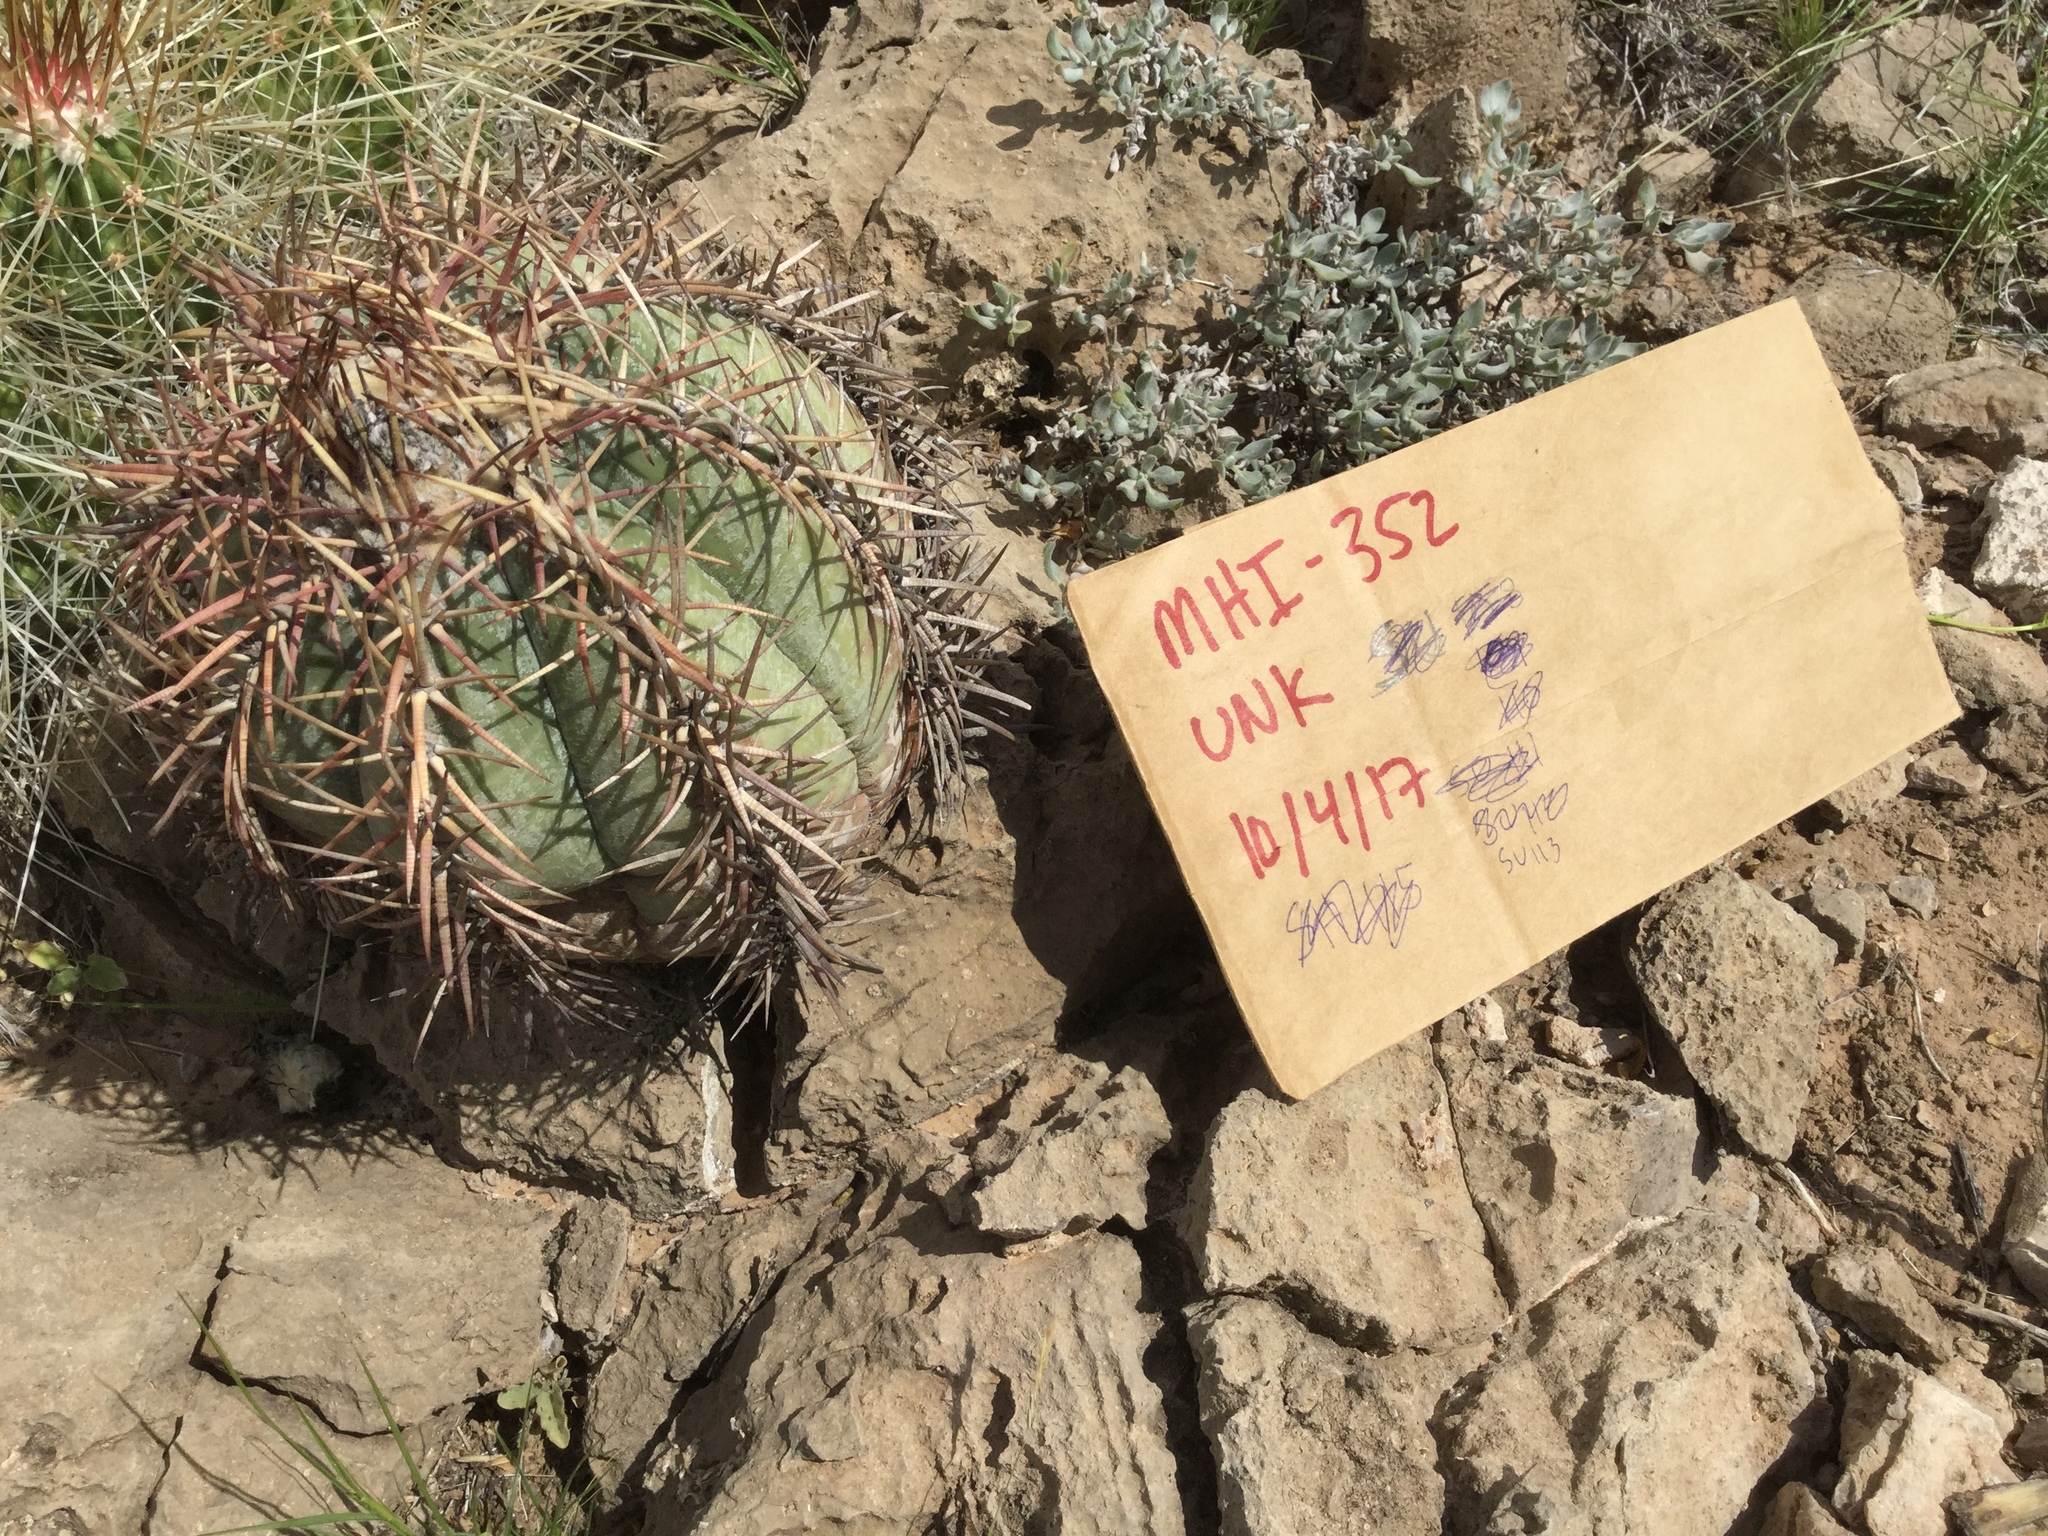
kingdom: Plantae
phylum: Tracheophyta
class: Magnoliopsida
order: Caryophyllales
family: Cactaceae
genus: Echinocactus
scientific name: Echinocactus horizonthalonius
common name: Devilshead
